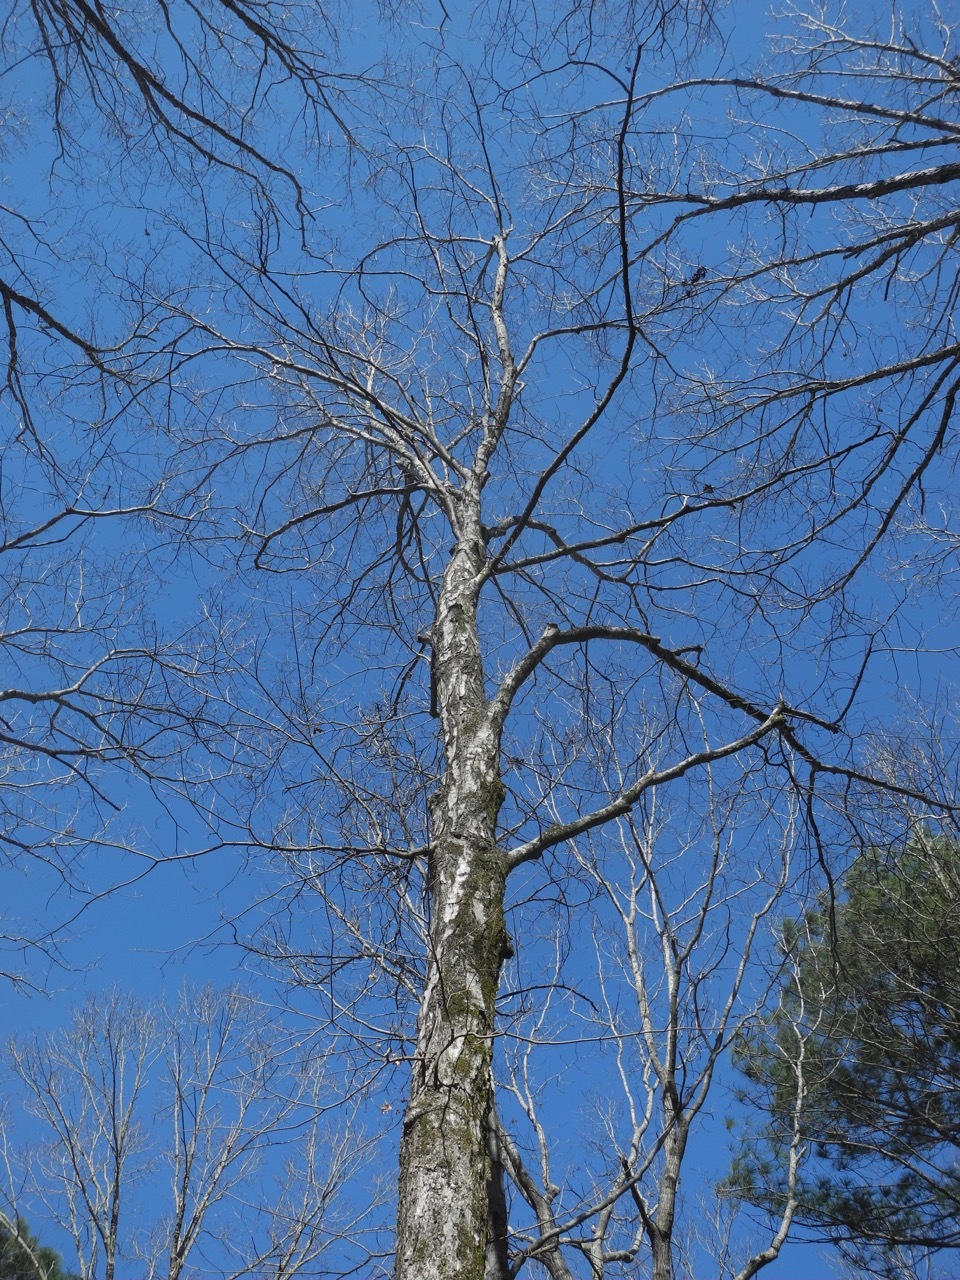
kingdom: Plantae
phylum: Tracheophyta
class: Magnoliopsida
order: Sapindales
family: Sapindaceae
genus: Acer
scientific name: Acer floridanum
